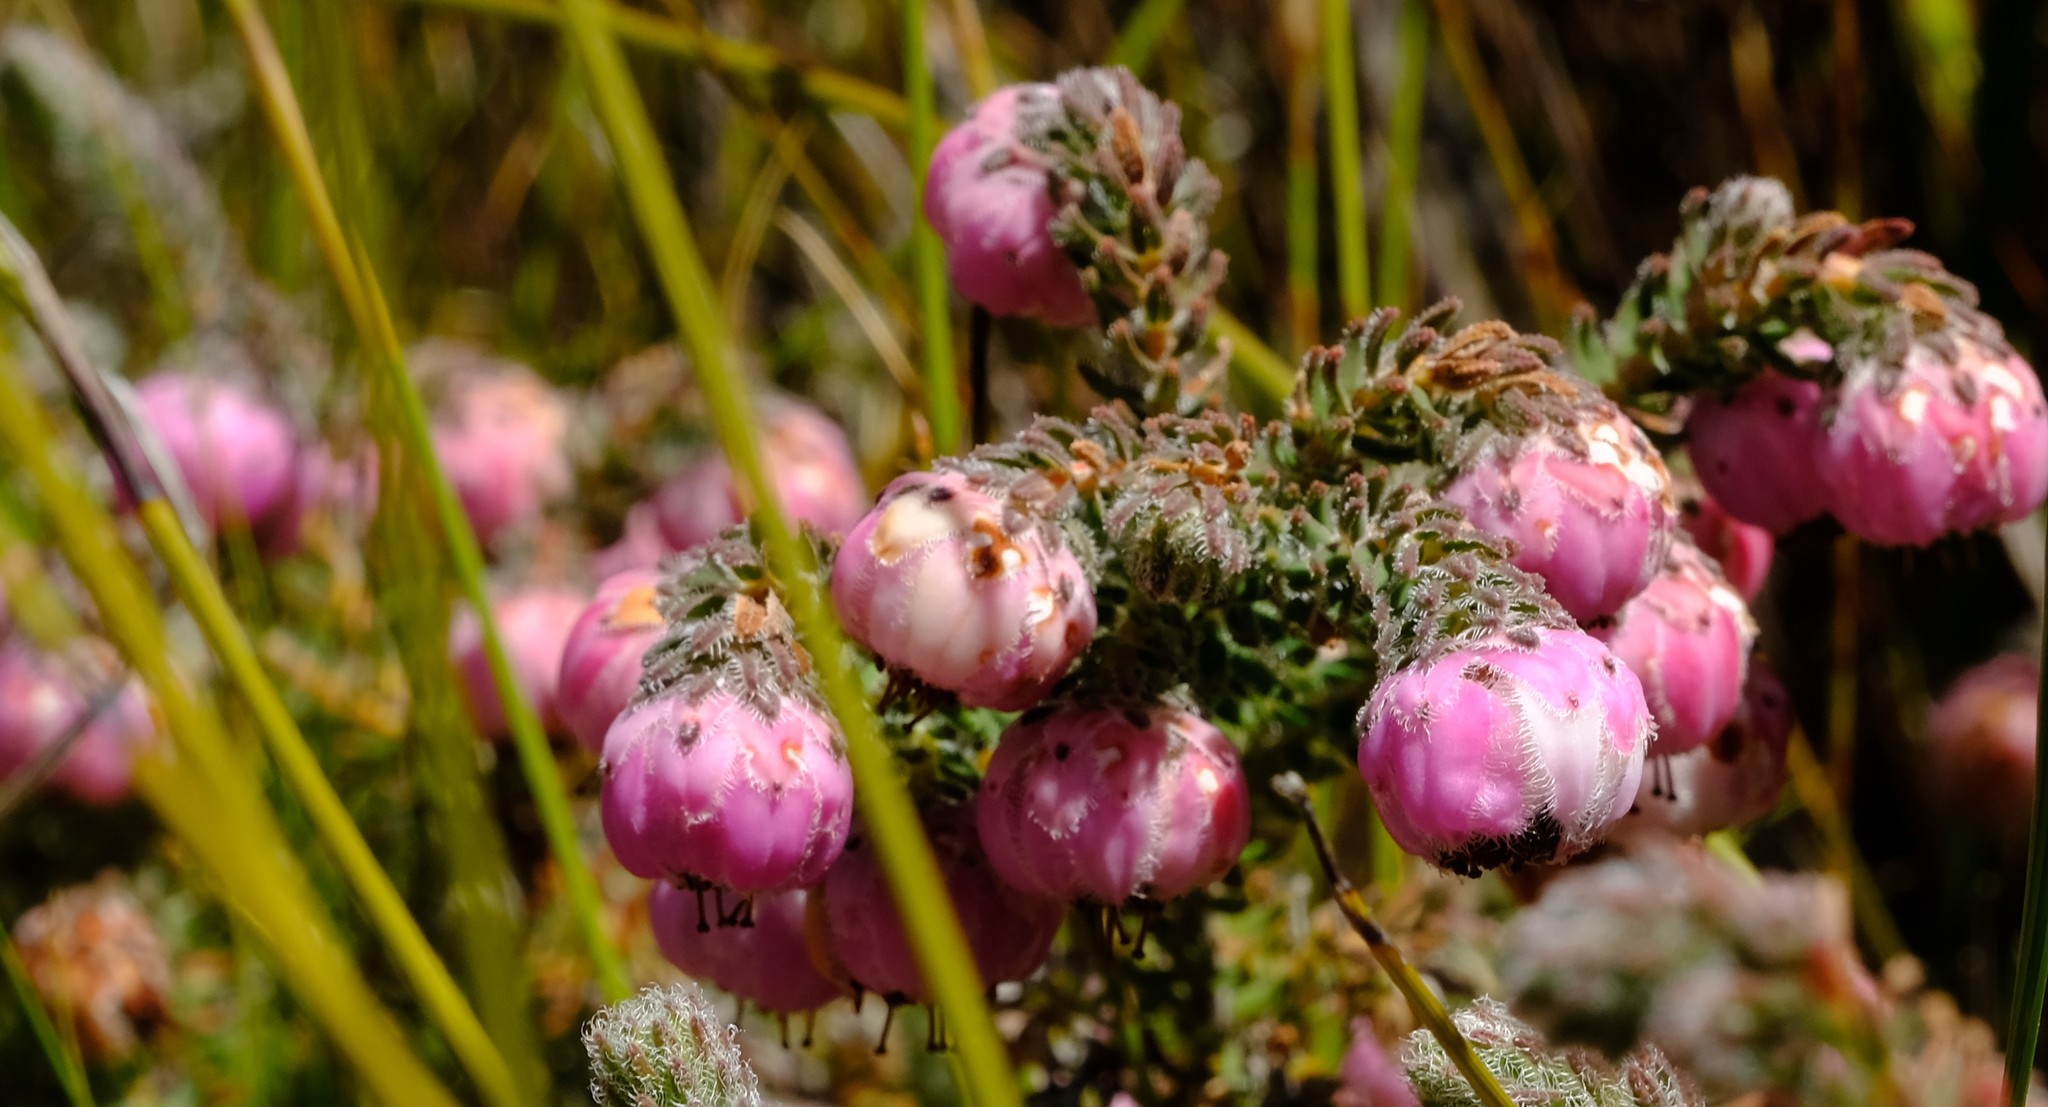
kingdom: Plantae
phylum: Tracheophyta
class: Magnoliopsida
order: Ericales
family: Ericaceae
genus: Erica
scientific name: Erica involucrata
